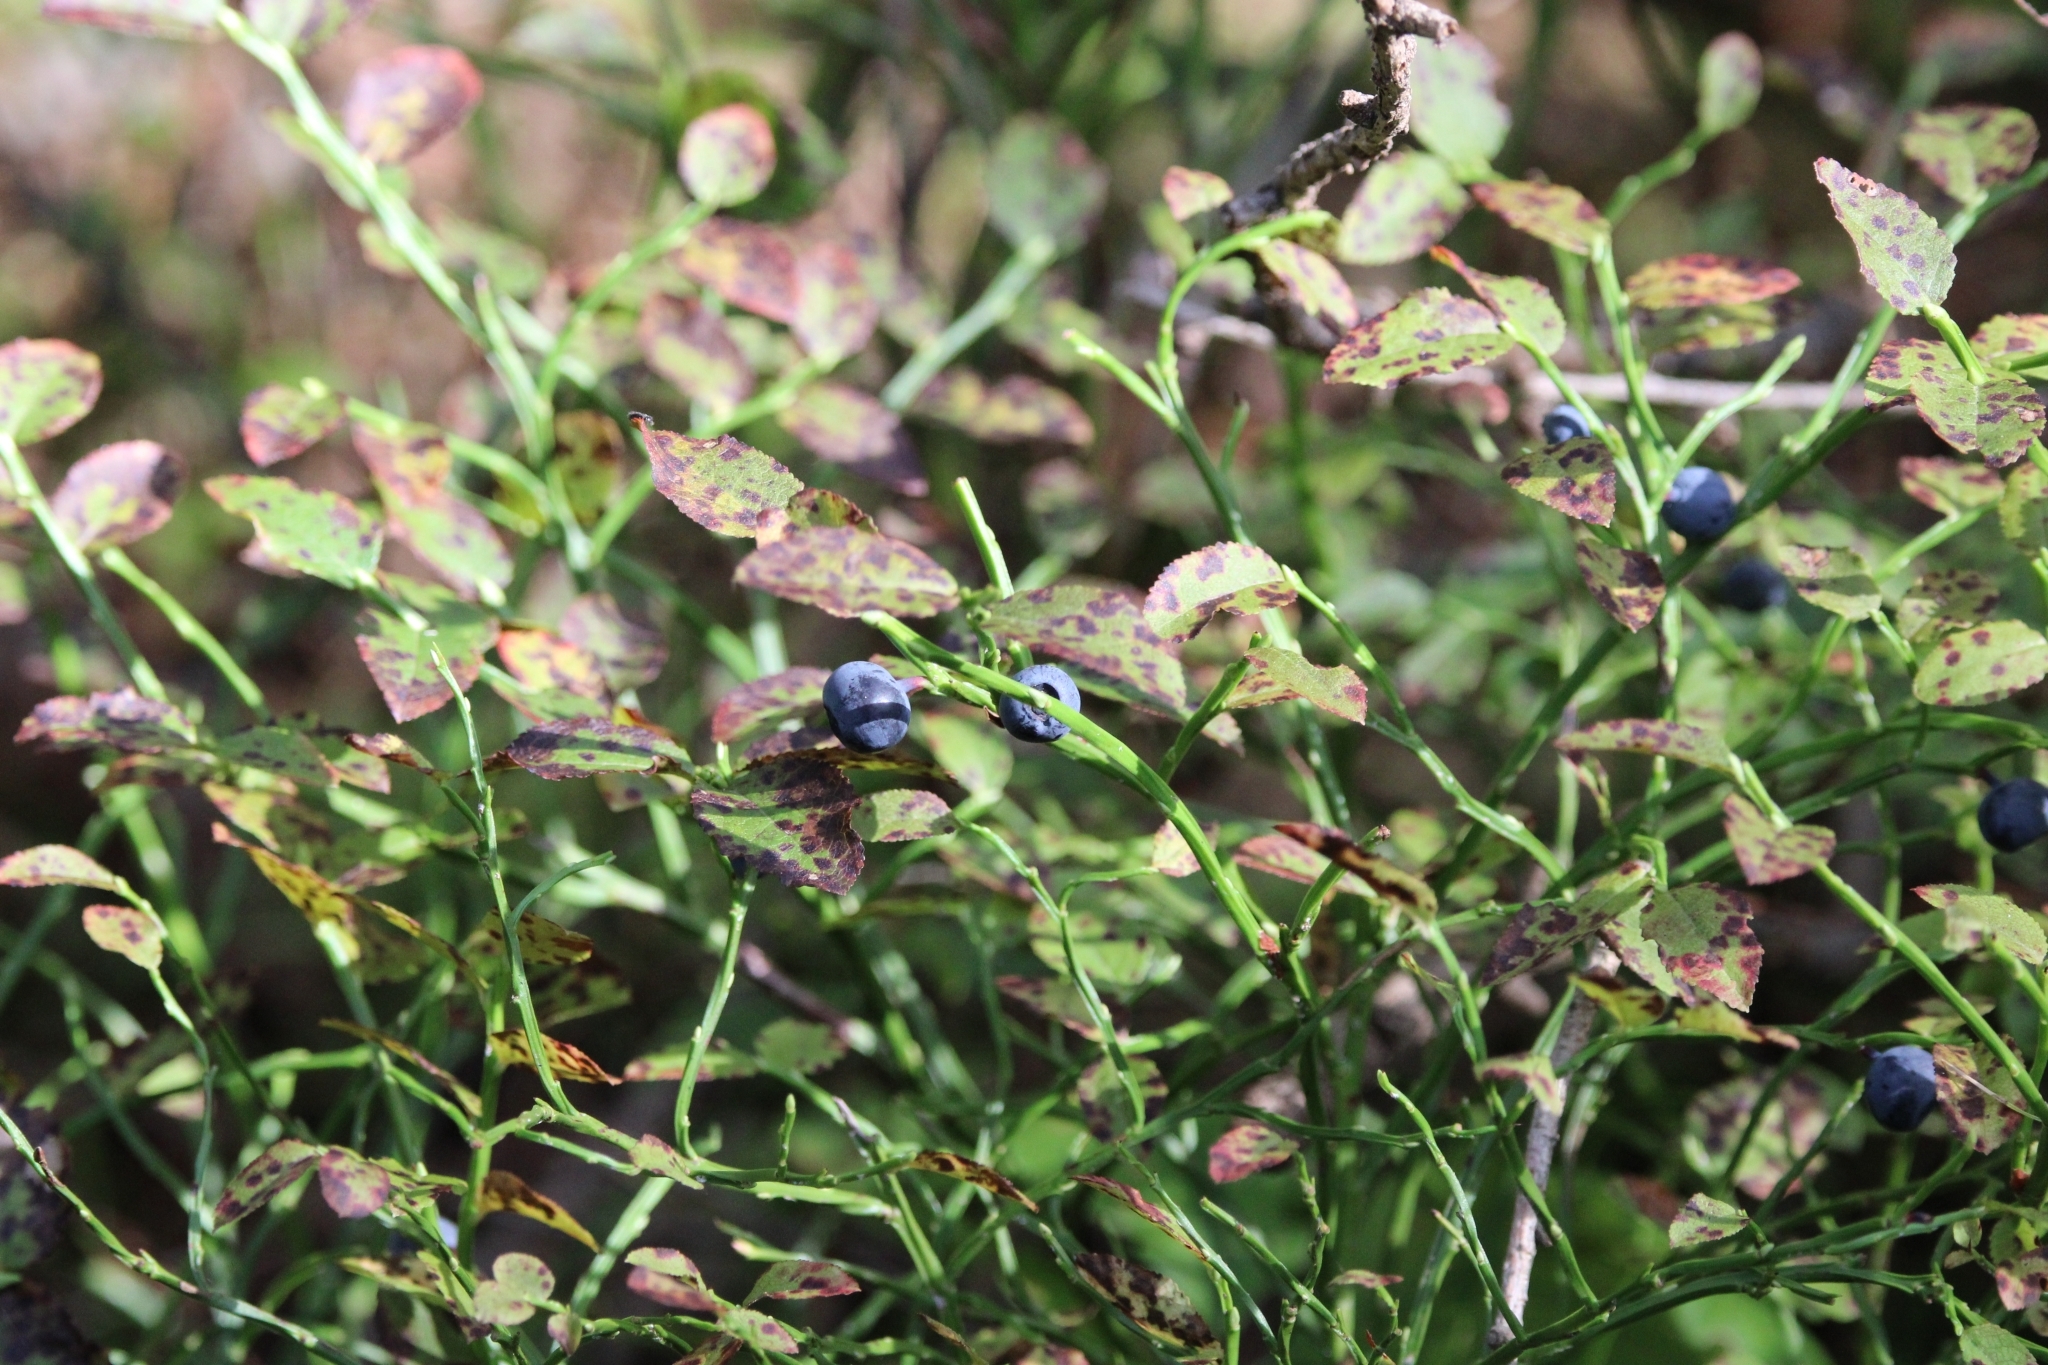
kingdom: Plantae
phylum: Tracheophyta
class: Magnoliopsida
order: Ericales
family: Ericaceae
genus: Vaccinium
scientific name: Vaccinium myrtillus
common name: Bilberry
